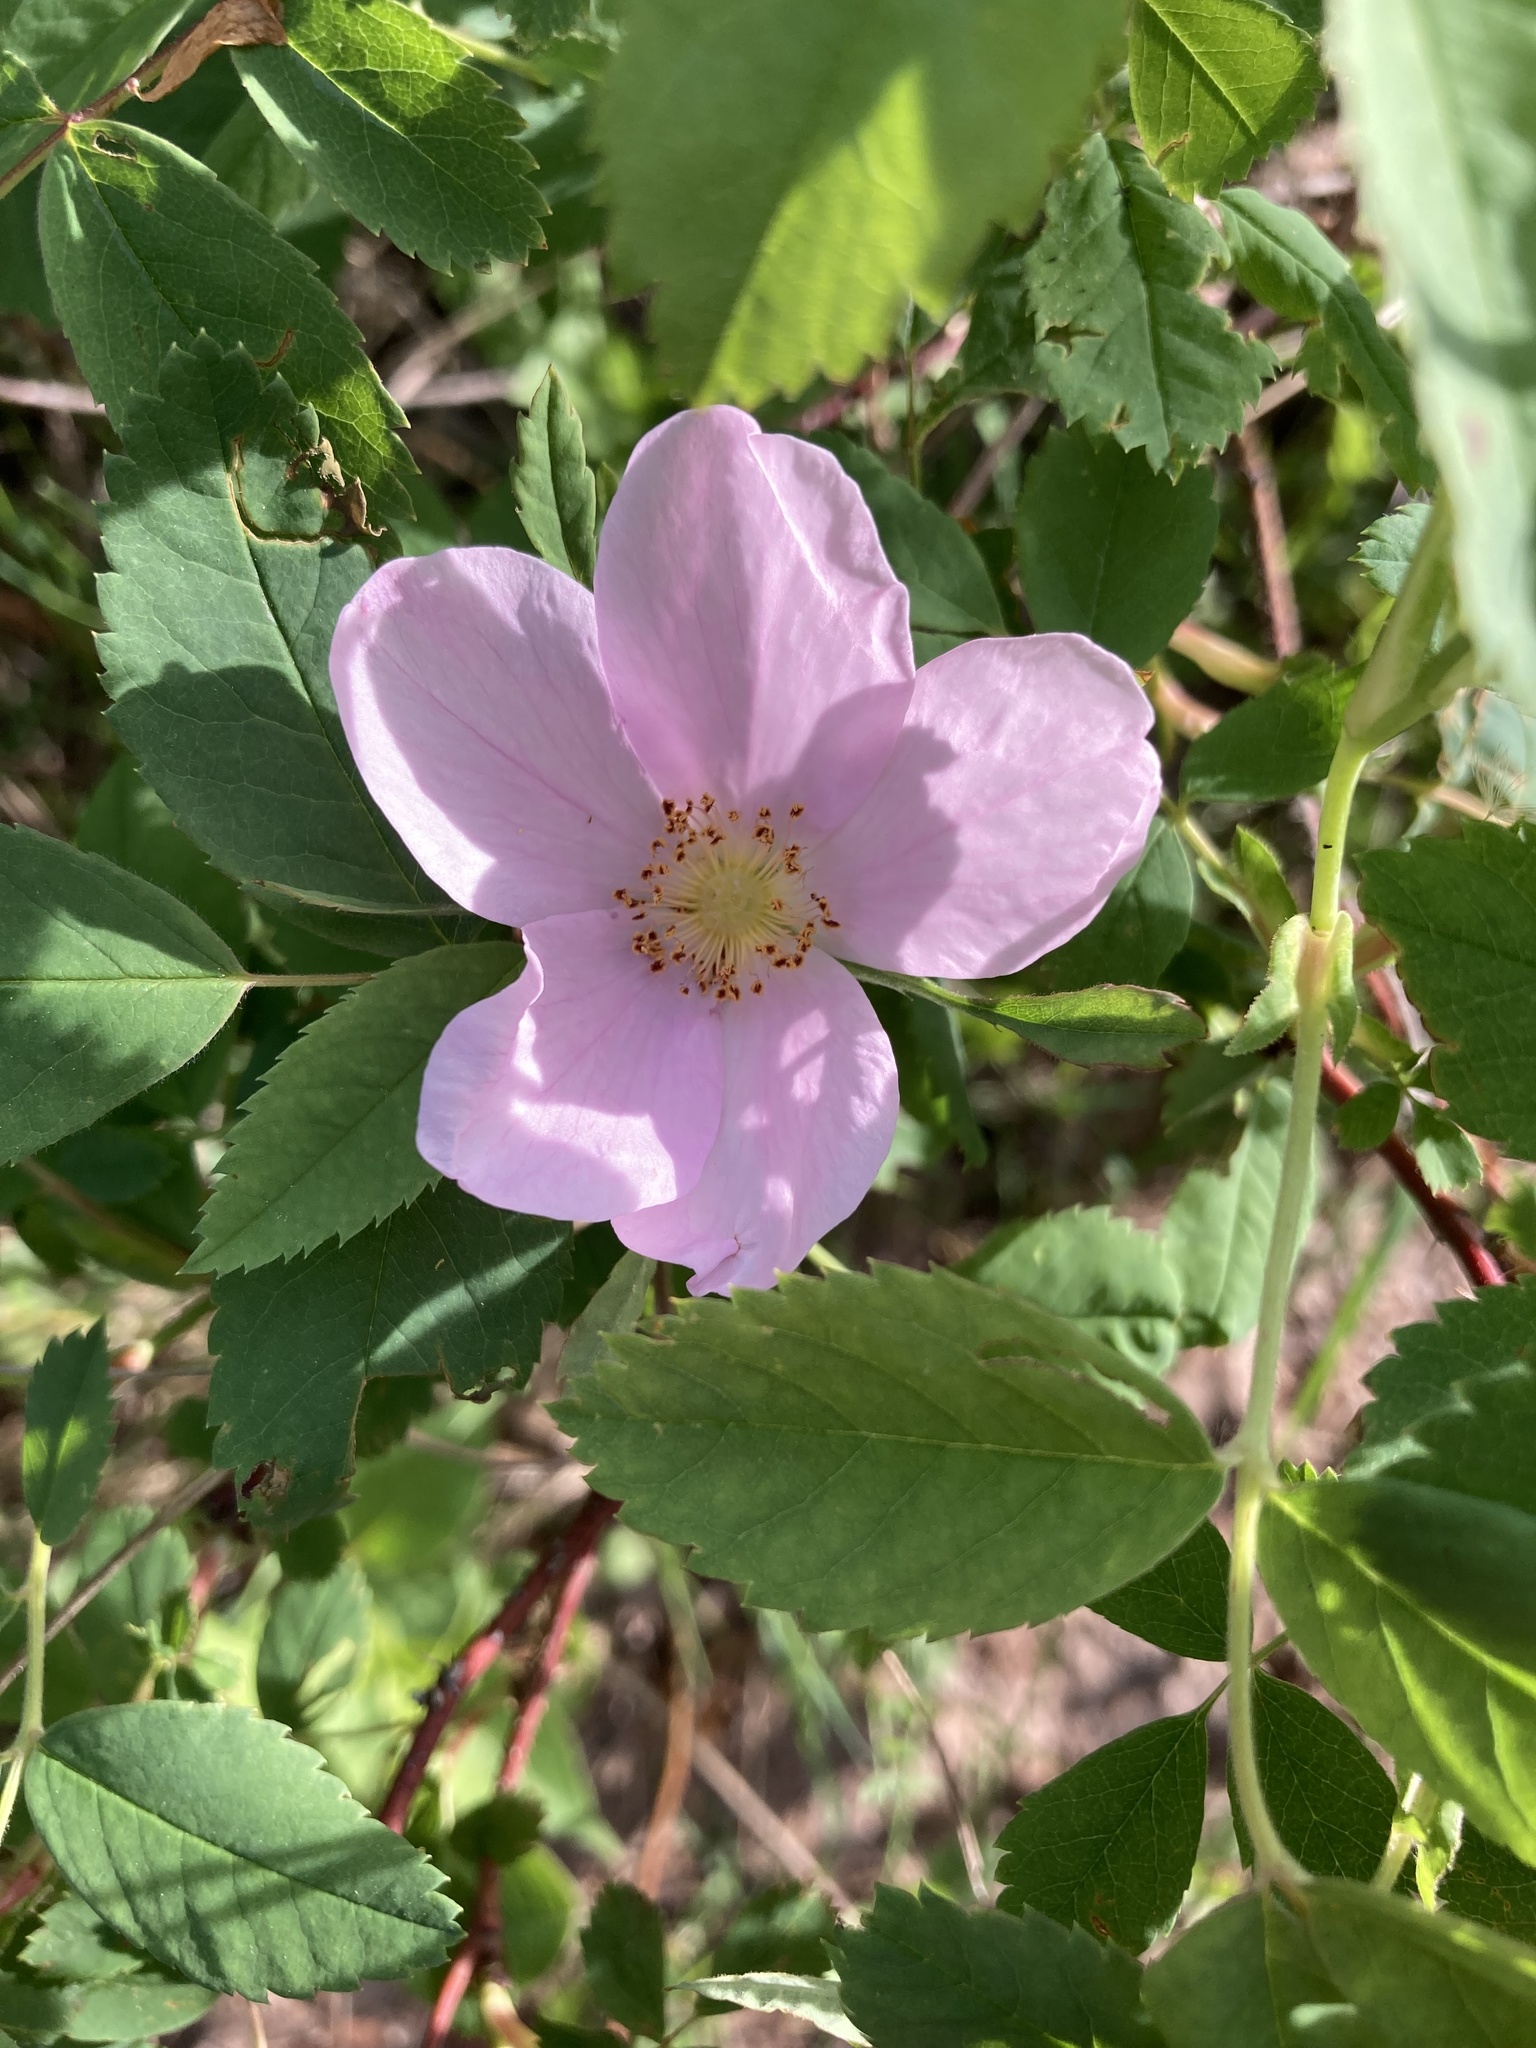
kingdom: Plantae
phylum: Tracheophyta
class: Magnoliopsida
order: Rosales
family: Rosaceae
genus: Rosa
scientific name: Rosa acicularis
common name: Prickly rose
